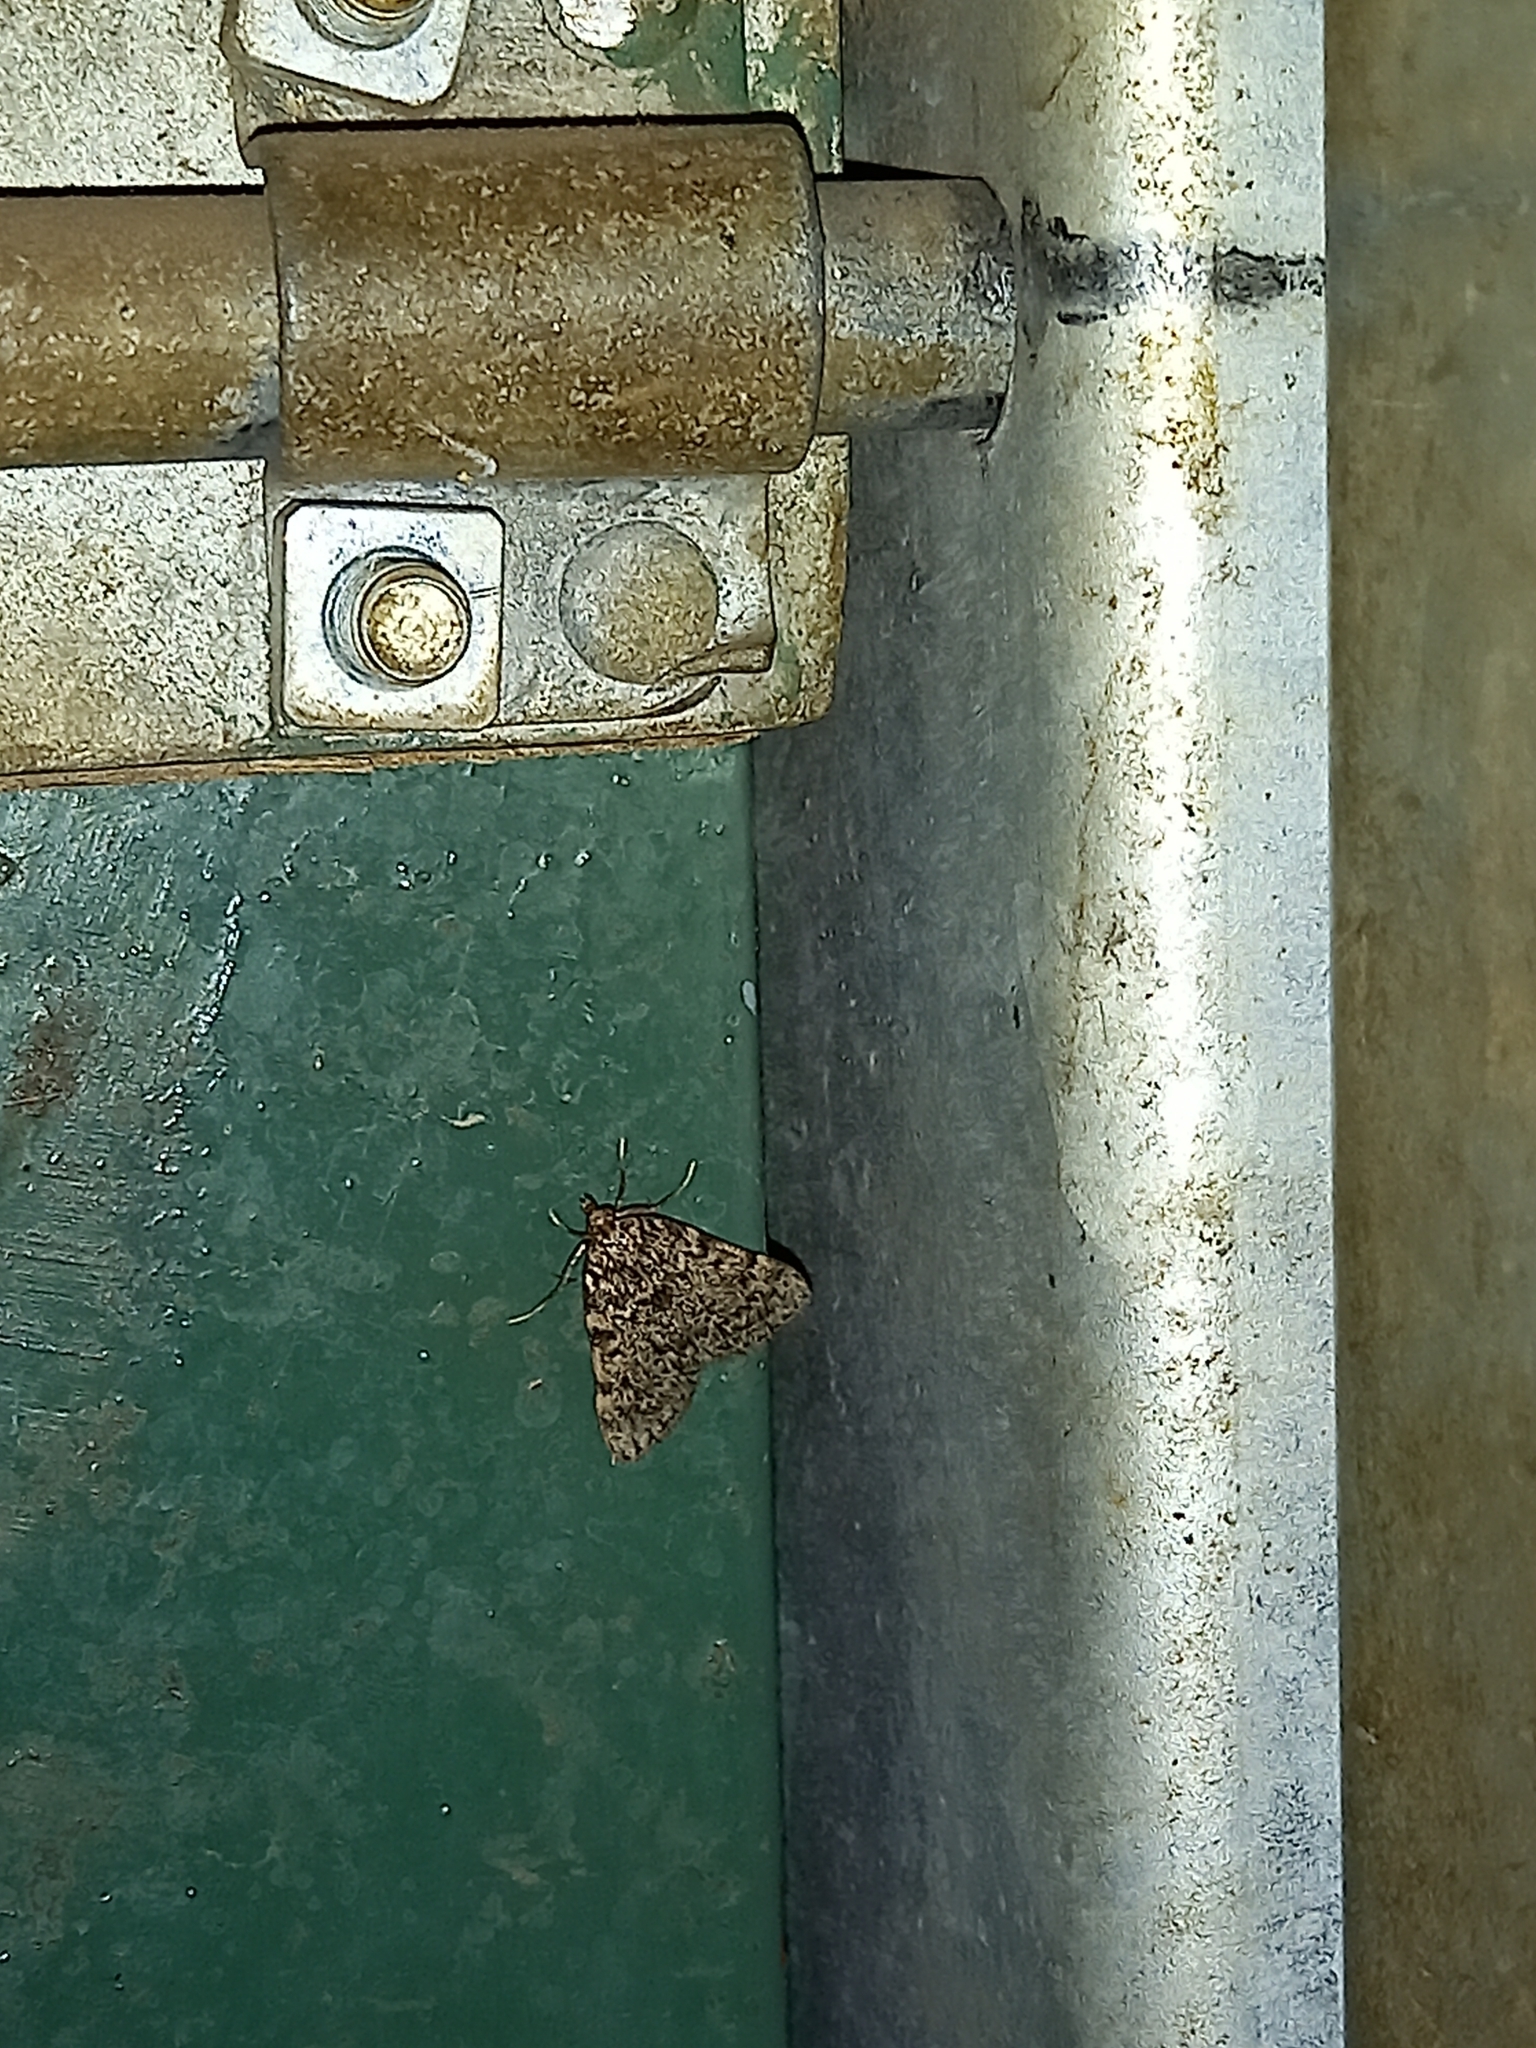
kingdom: Animalia
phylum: Arthropoda
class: Insecta
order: Lepidoptera
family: Pyralidae
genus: Aglossa
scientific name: Aglossa pinguinalis
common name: Large tabby
